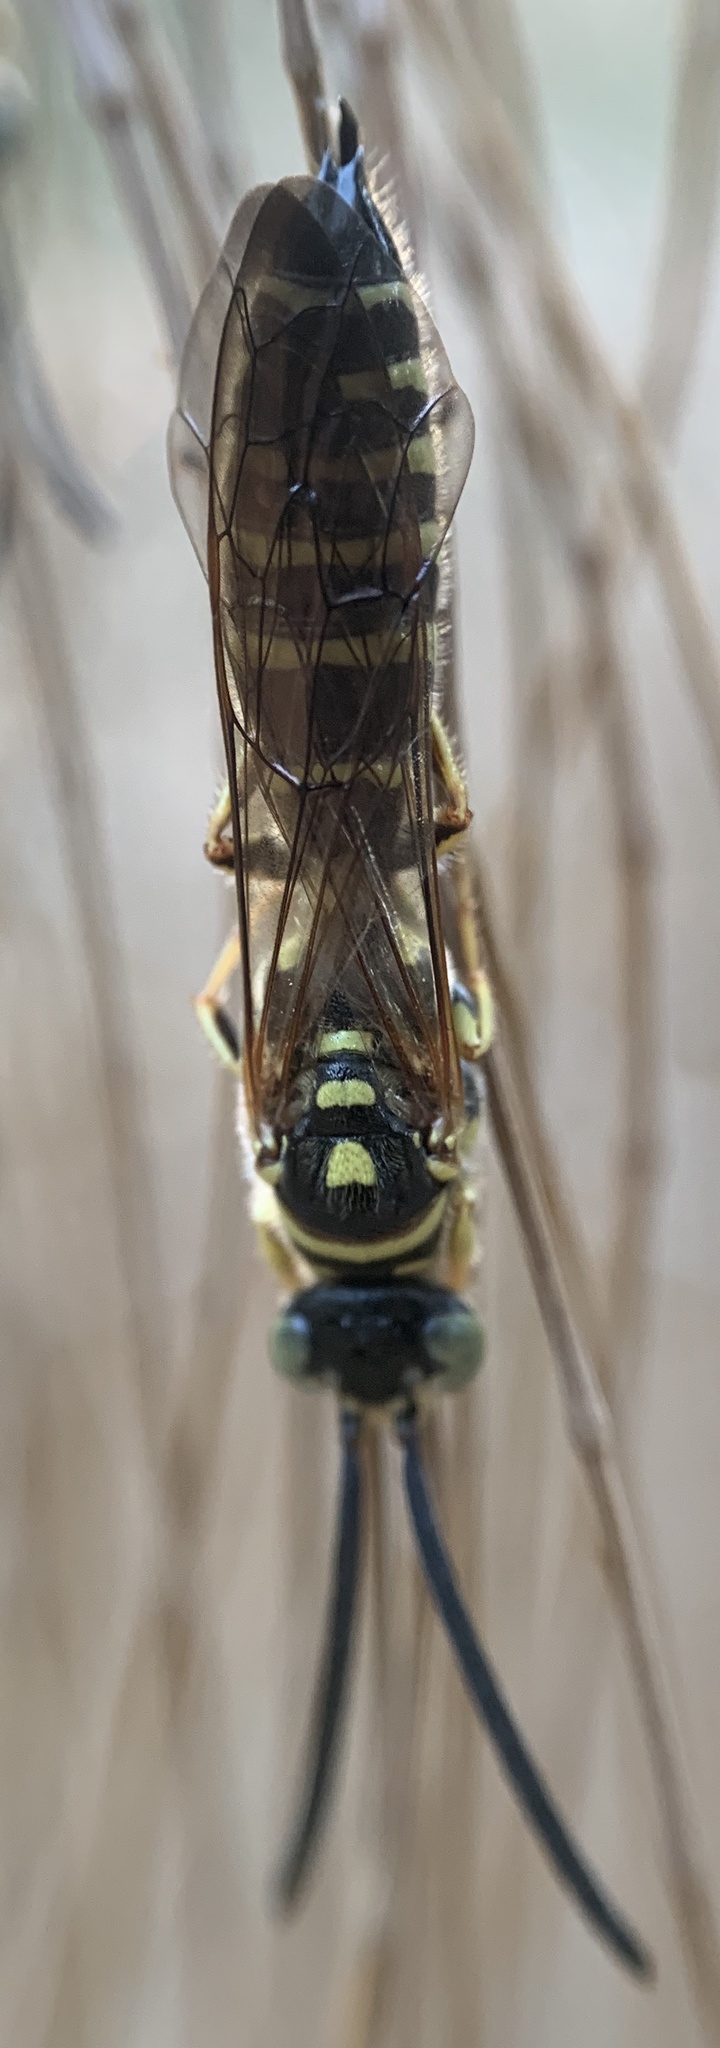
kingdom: Animalia
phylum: Arthropoda
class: Insecta
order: Hymenoptera
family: Tiphiidae
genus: Myzinum
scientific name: Myzinum
